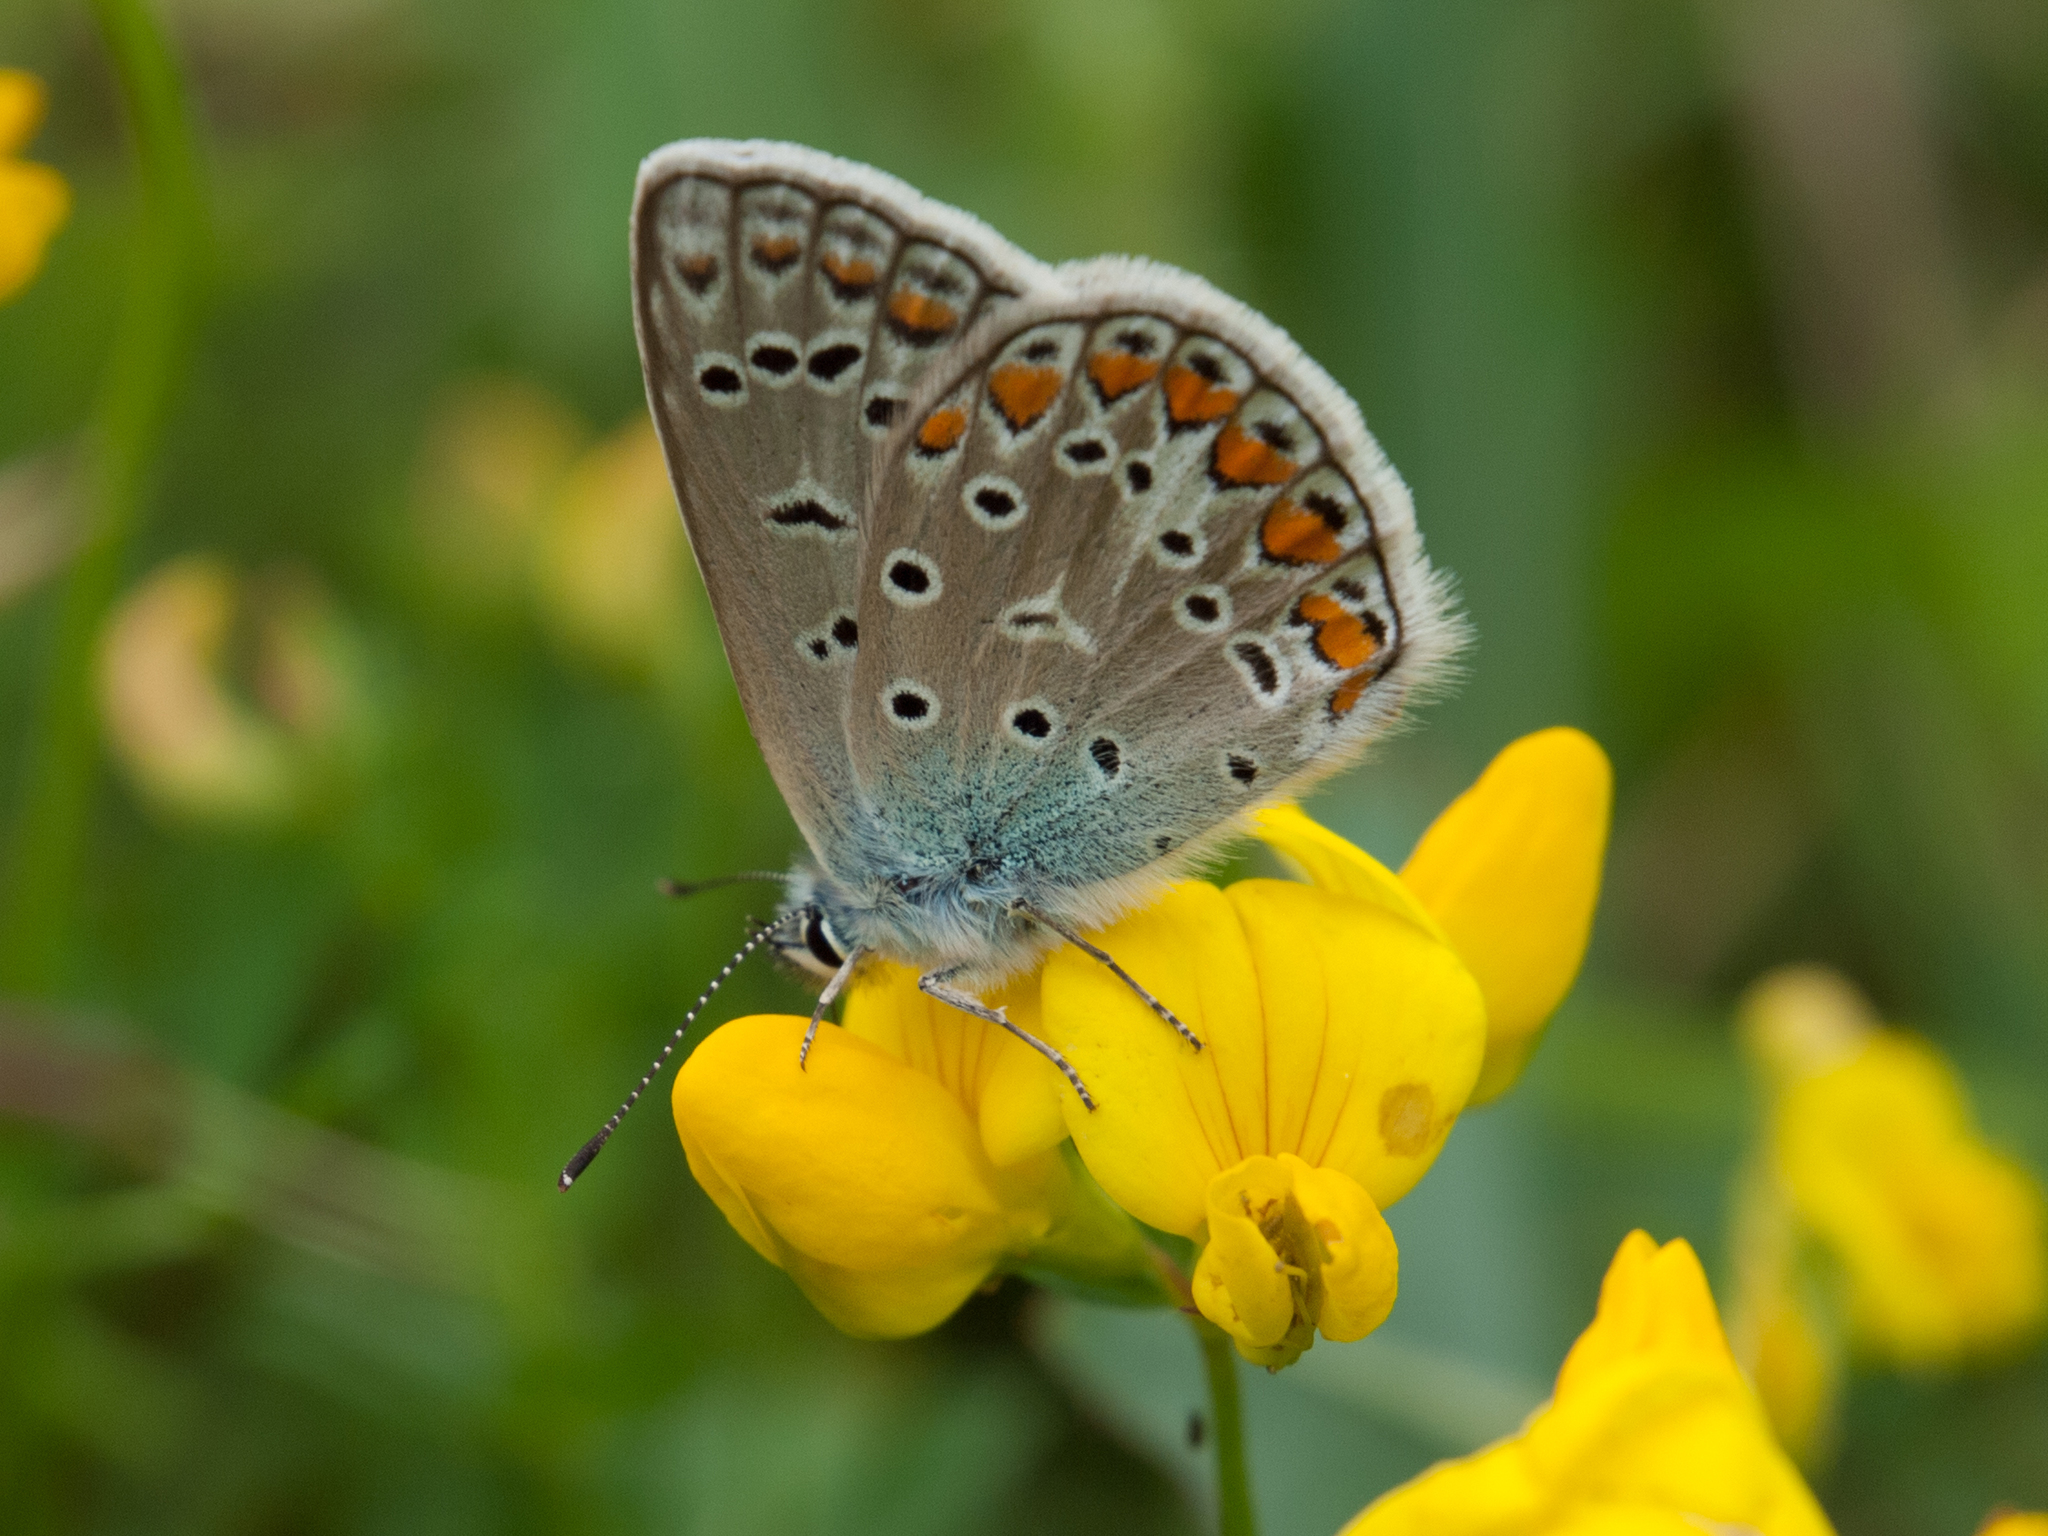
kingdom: Animalia
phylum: Arthropoda
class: Insecta
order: Lepidoptera
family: Lycaenidae
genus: Polyommatus
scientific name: Polyommatus icarus
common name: Common blue
